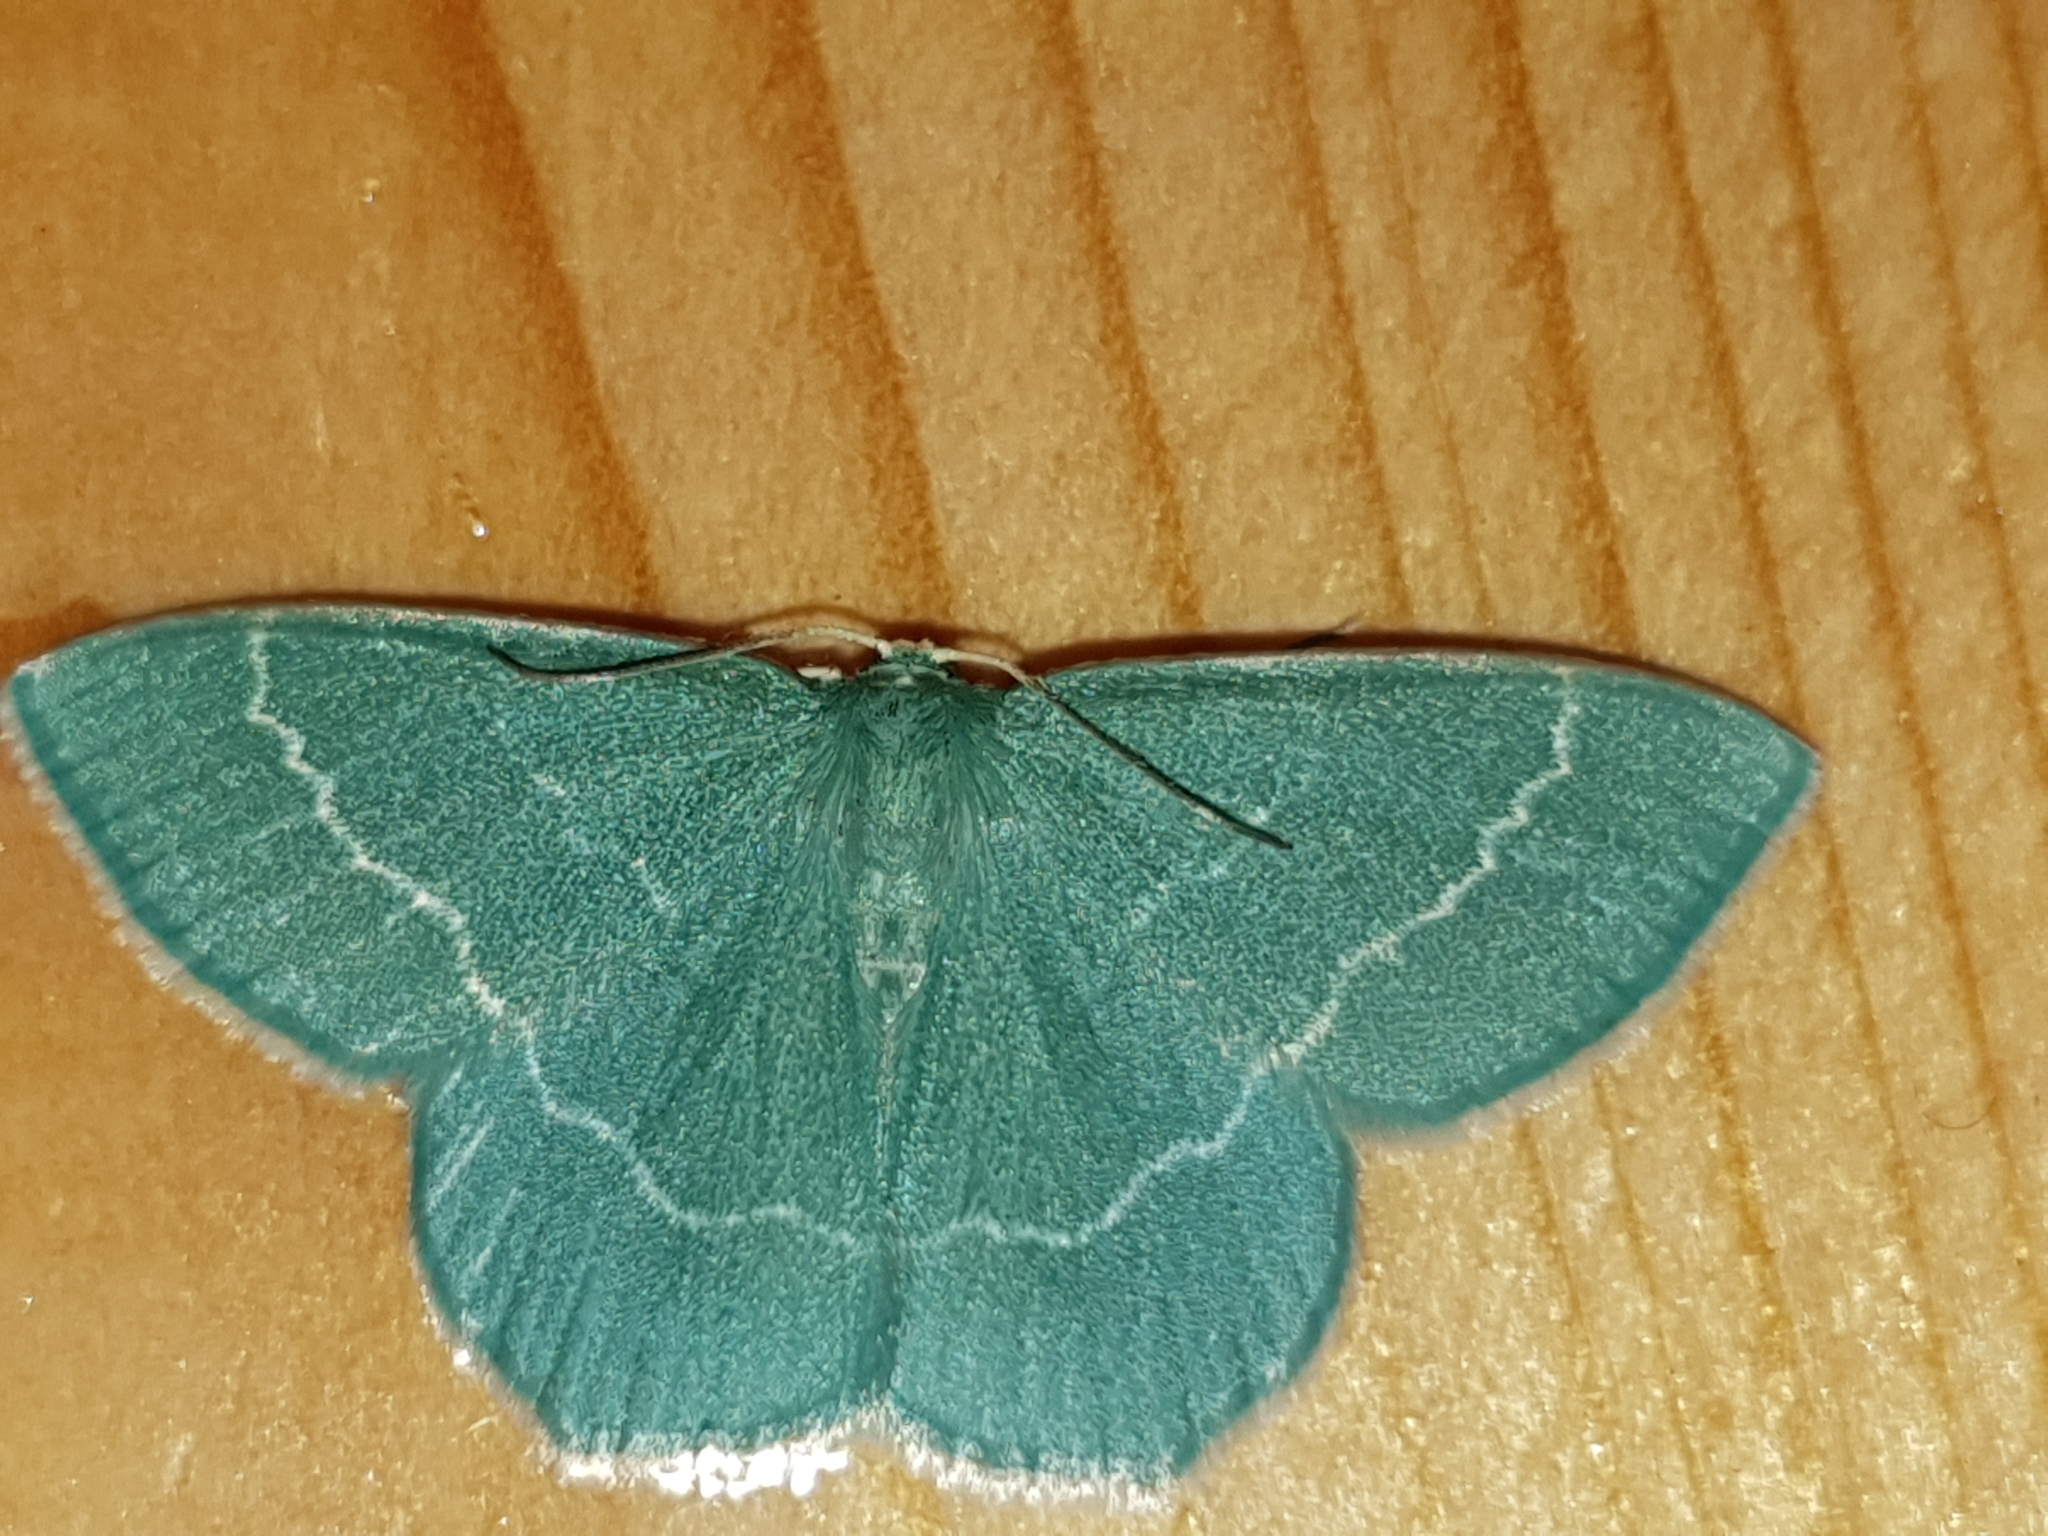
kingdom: Animalia
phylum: Arthropoda
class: Insecta
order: Lepidoptera
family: Geometridae
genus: Chlorissa
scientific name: Chlorissa cloraria
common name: Southern grass emerald
